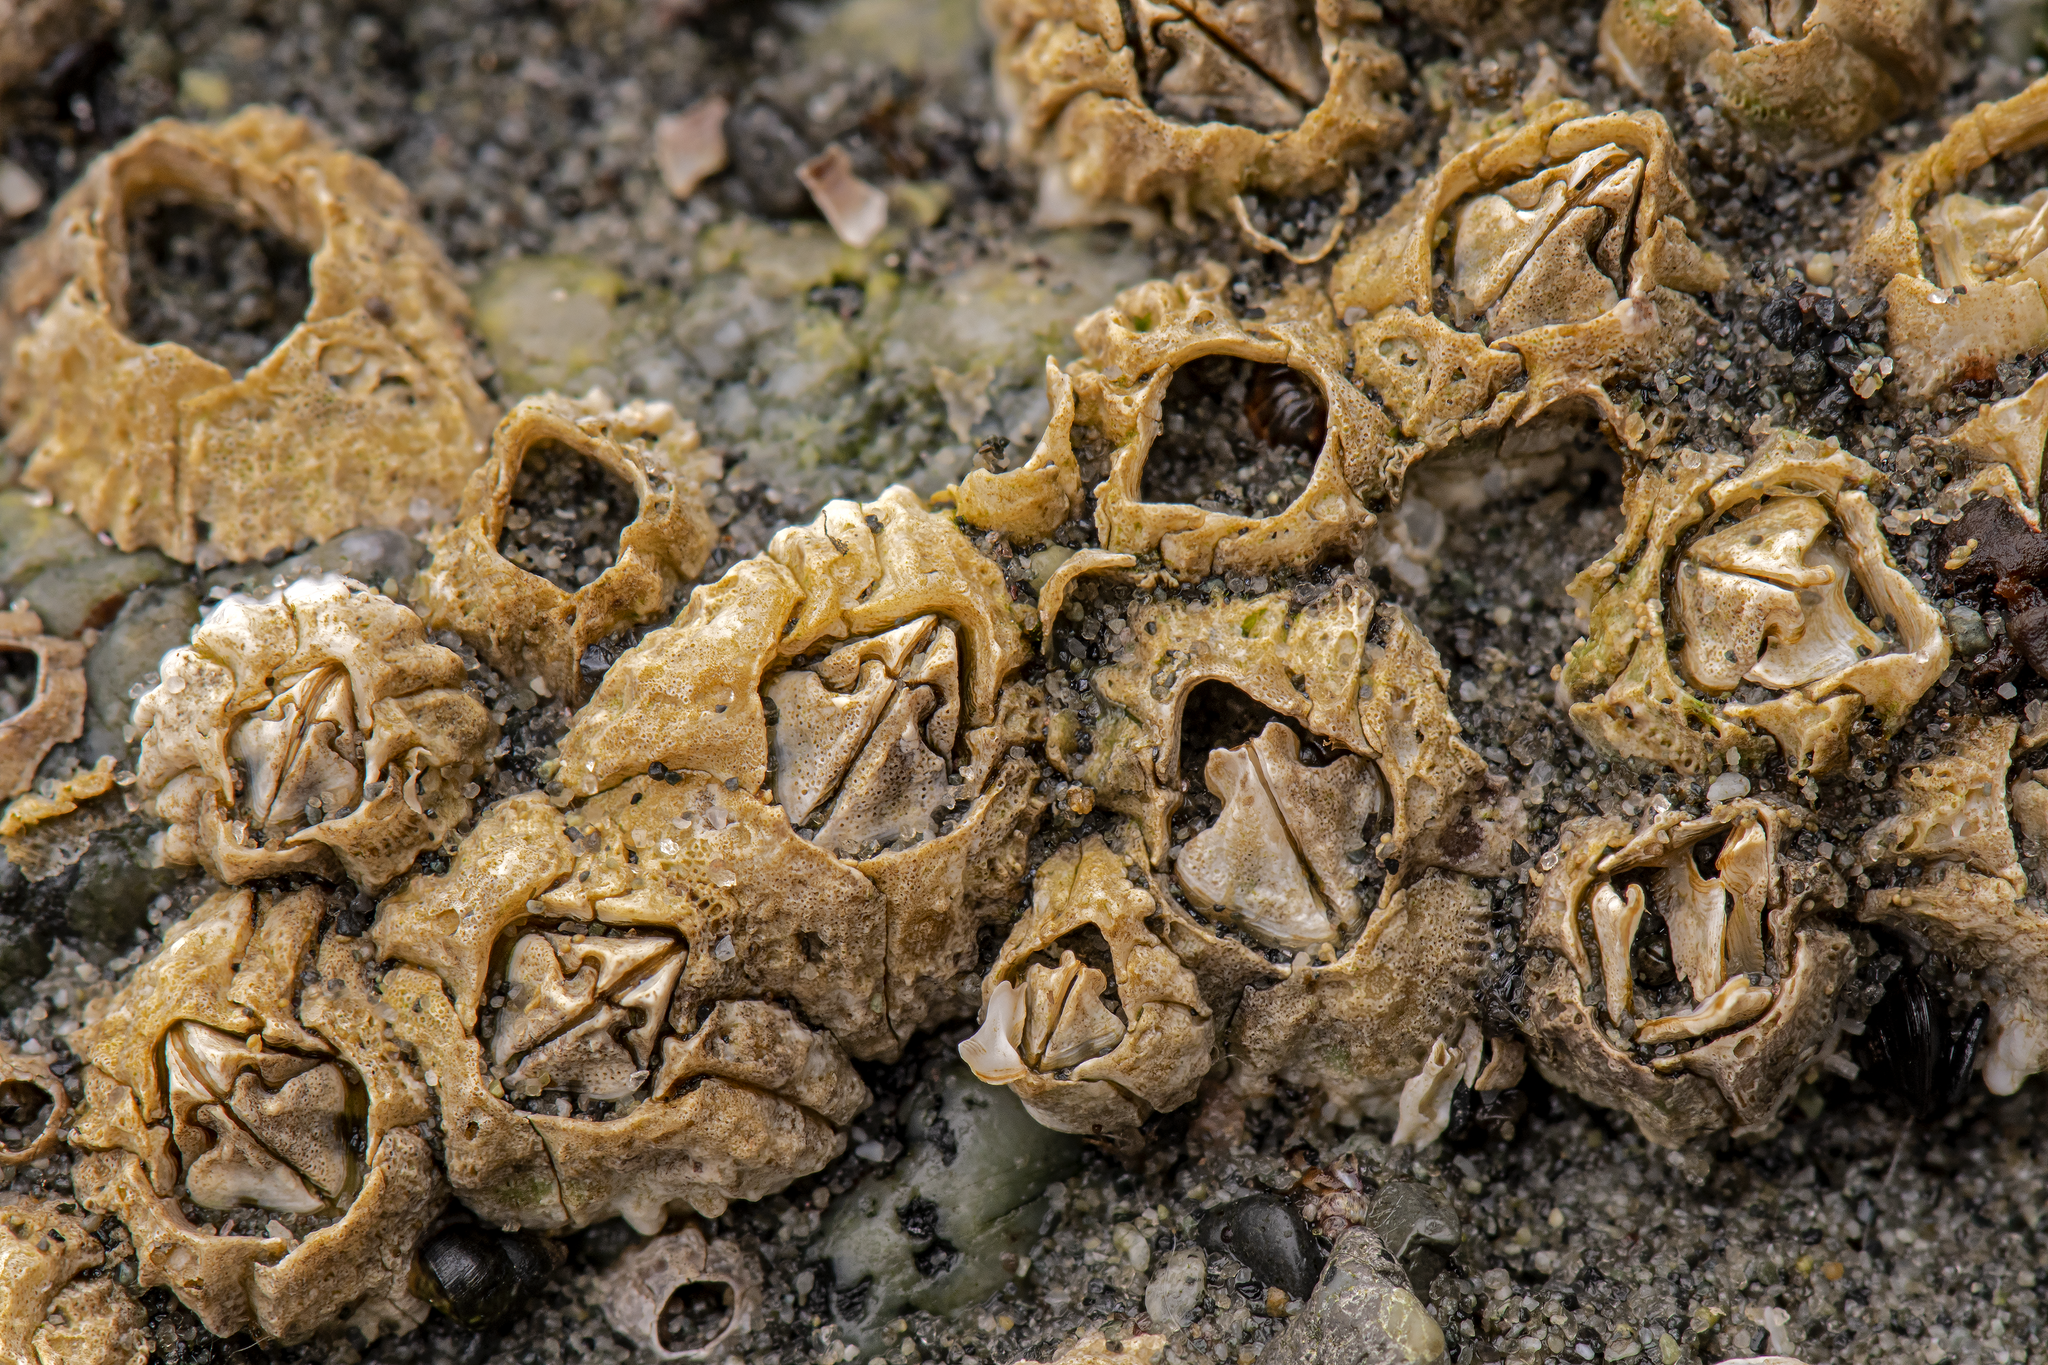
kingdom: Animalia
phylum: Arthropoda
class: Maxillopoda
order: Sessilia
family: Balanidae
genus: Balanus
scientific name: Balanus glandula
